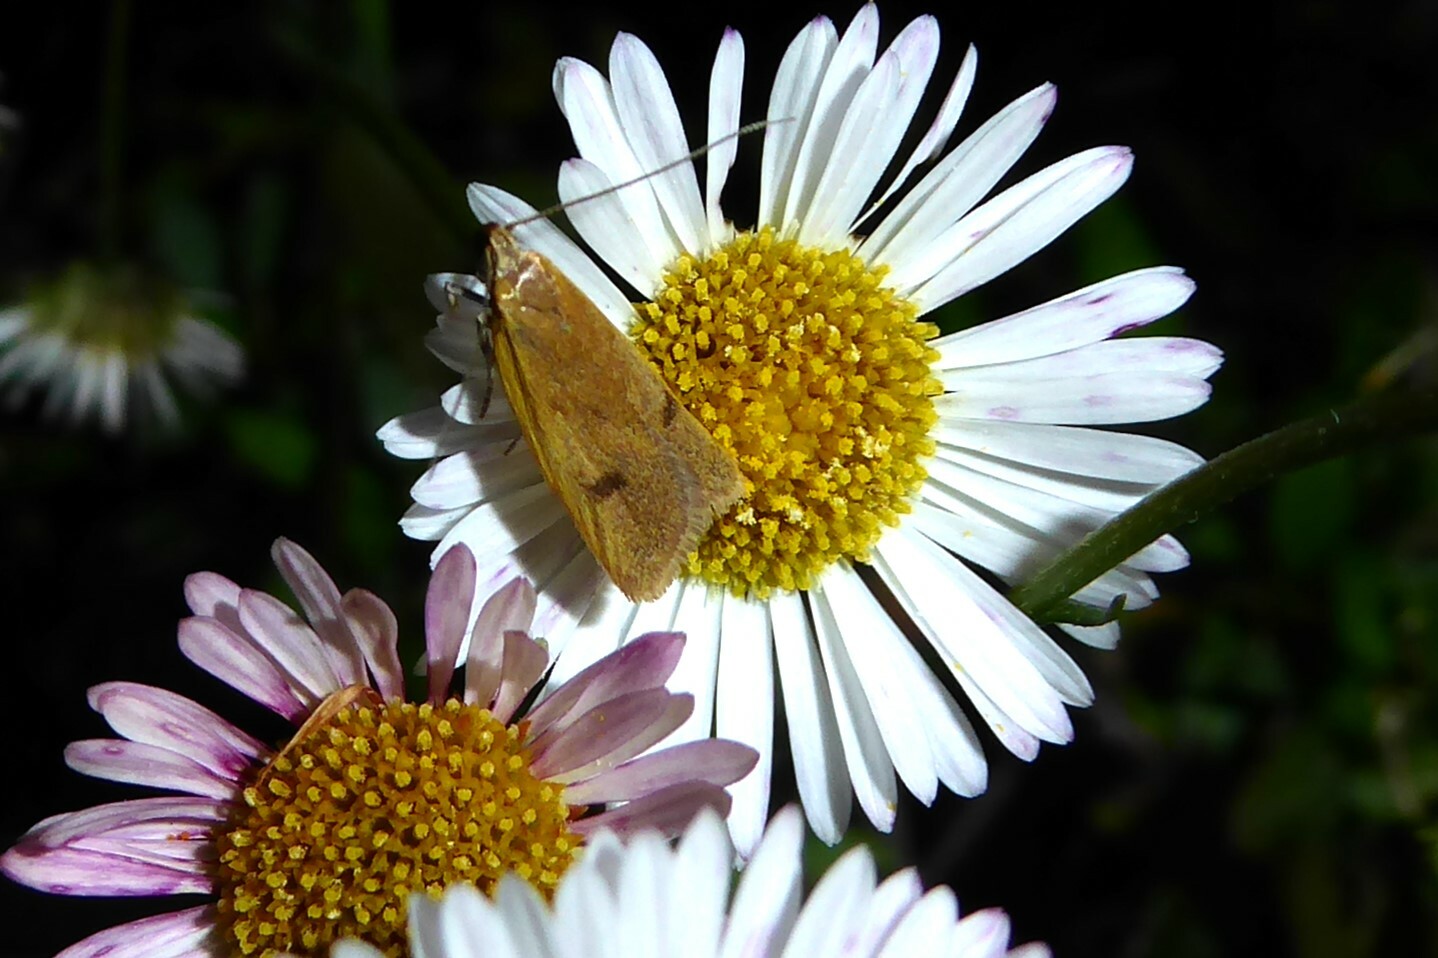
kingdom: Animalia
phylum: Arthropoda
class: Insecta
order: Lepidoptera
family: Oecophoridae
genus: Gymnobathra
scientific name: Gymnobathra parca
